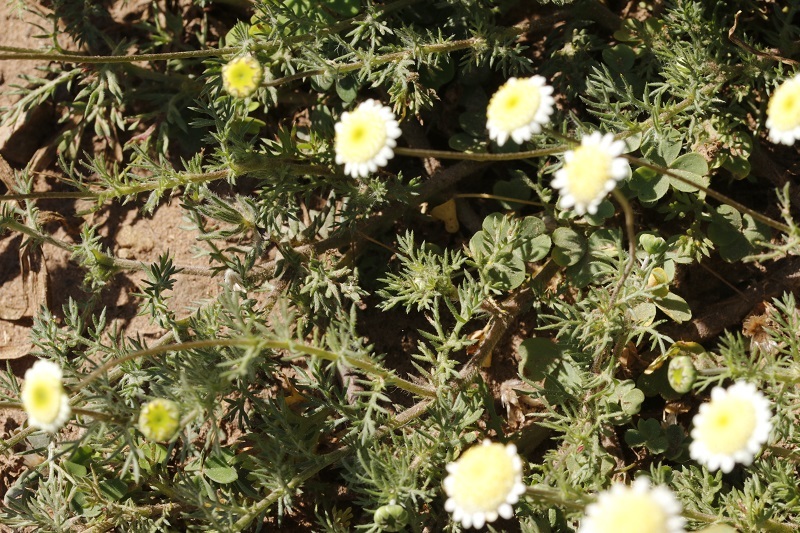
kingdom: Plantae
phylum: Tracheophyta
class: Magnoliopsida
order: Asterales
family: Asteraceae
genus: Cotula
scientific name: Cotula turbinata
